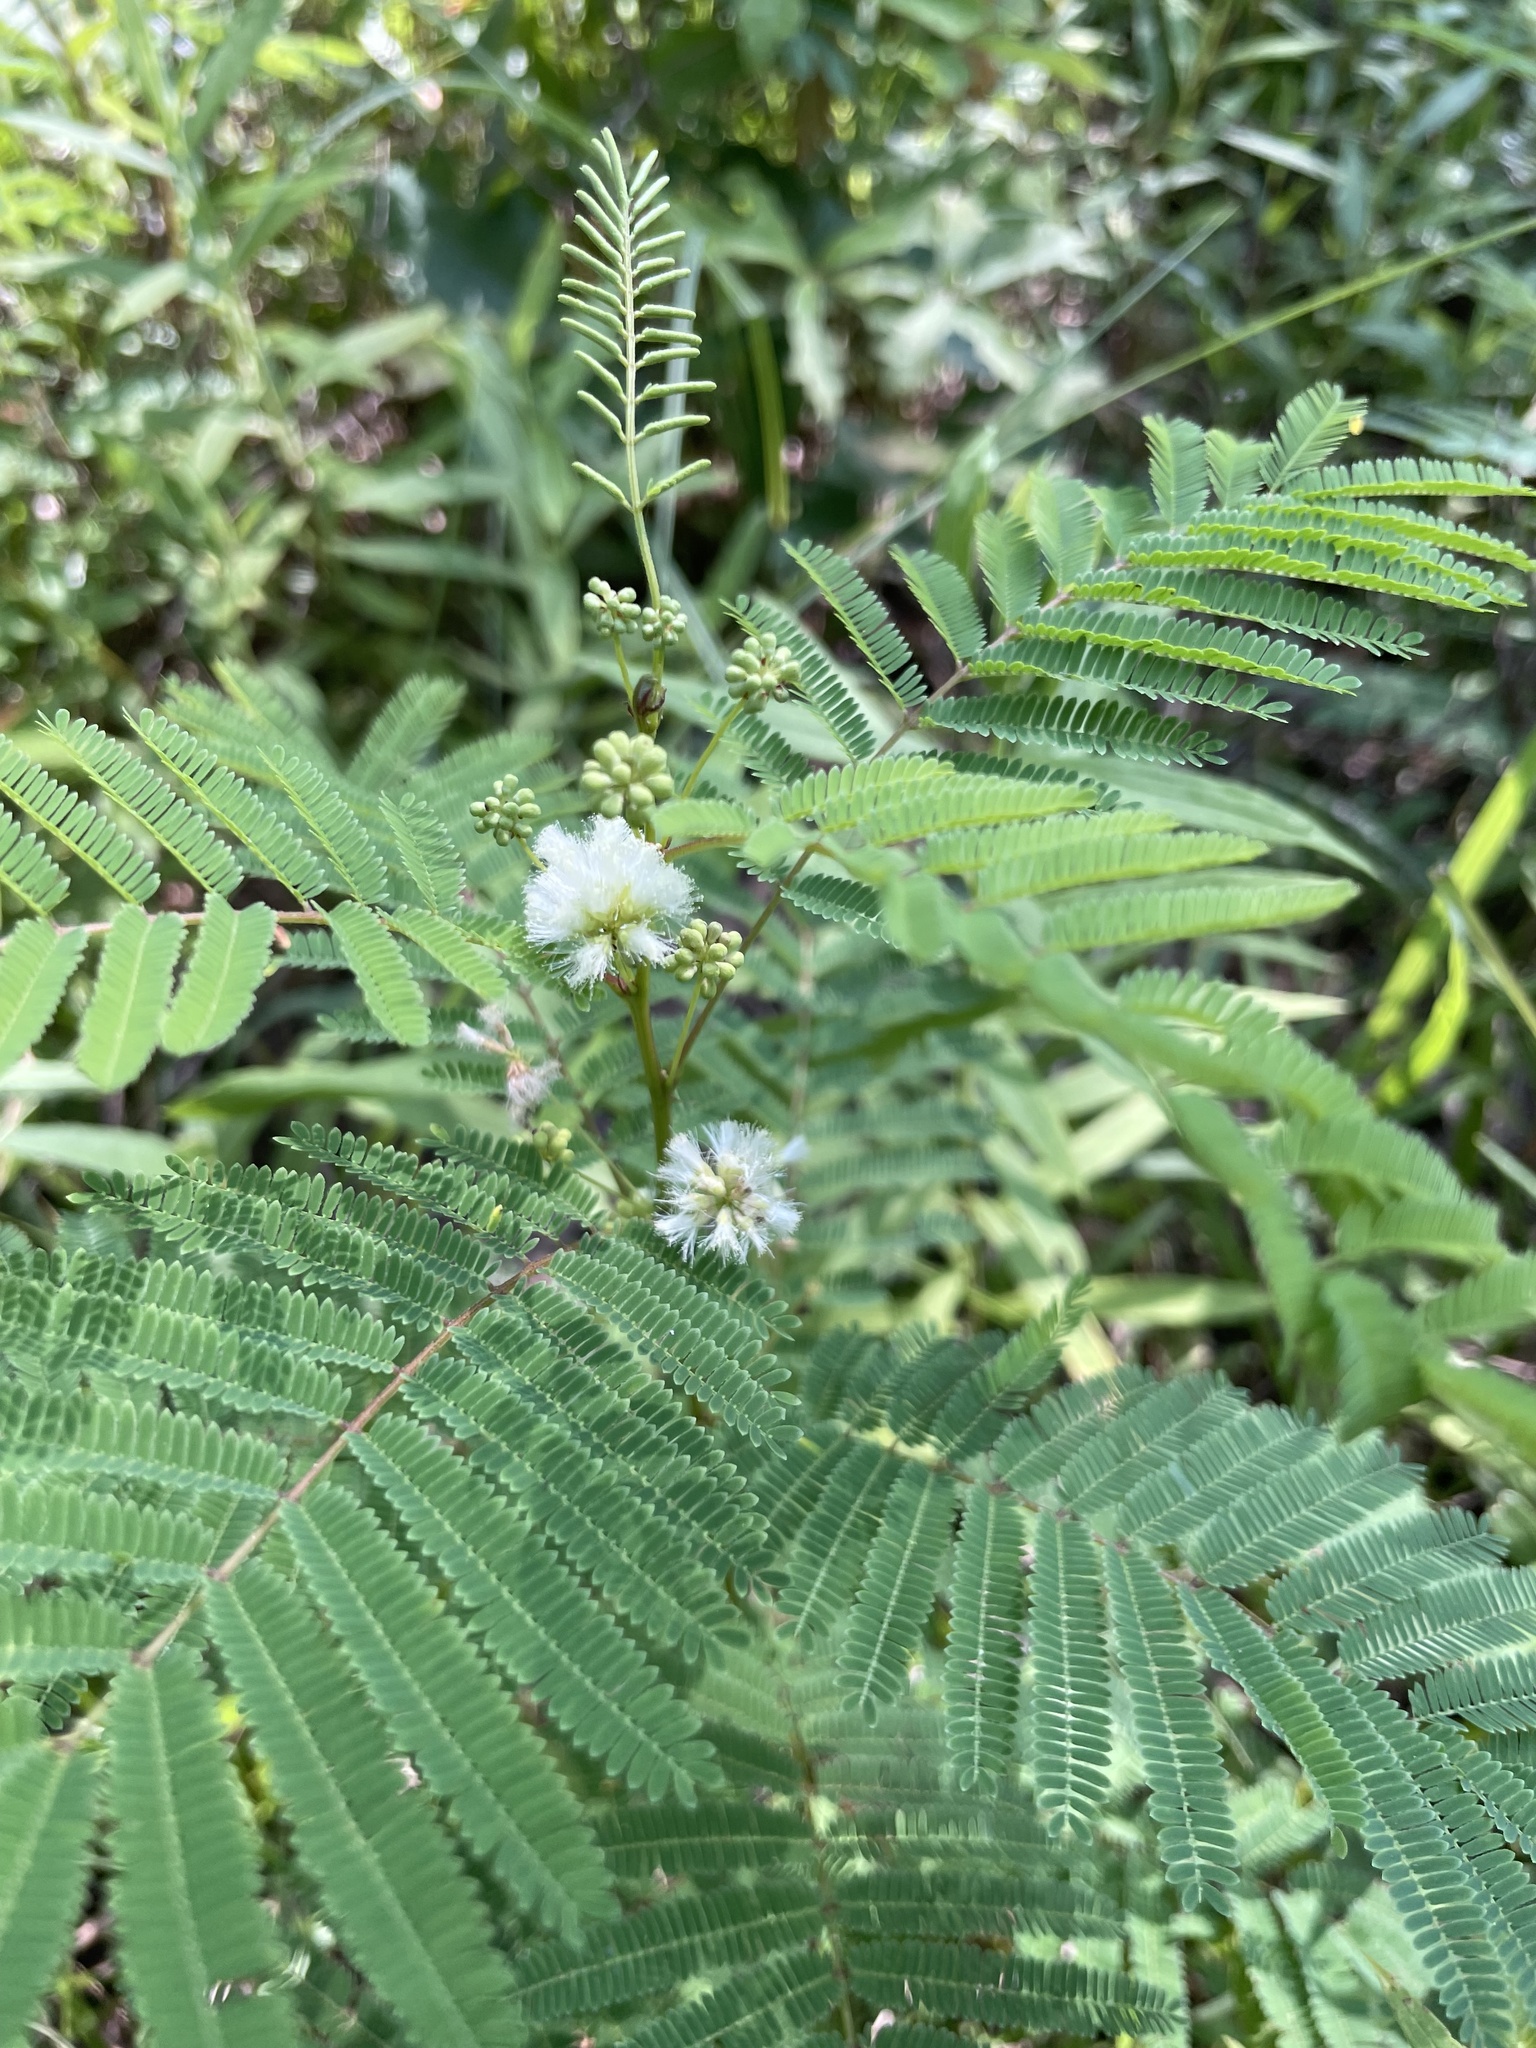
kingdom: Plantae
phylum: Tracheophyta
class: Magnoliopsida
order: Fabales
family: Fabaceae
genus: Acaciella
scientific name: Acaciella angustissima
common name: Prairie acacia
